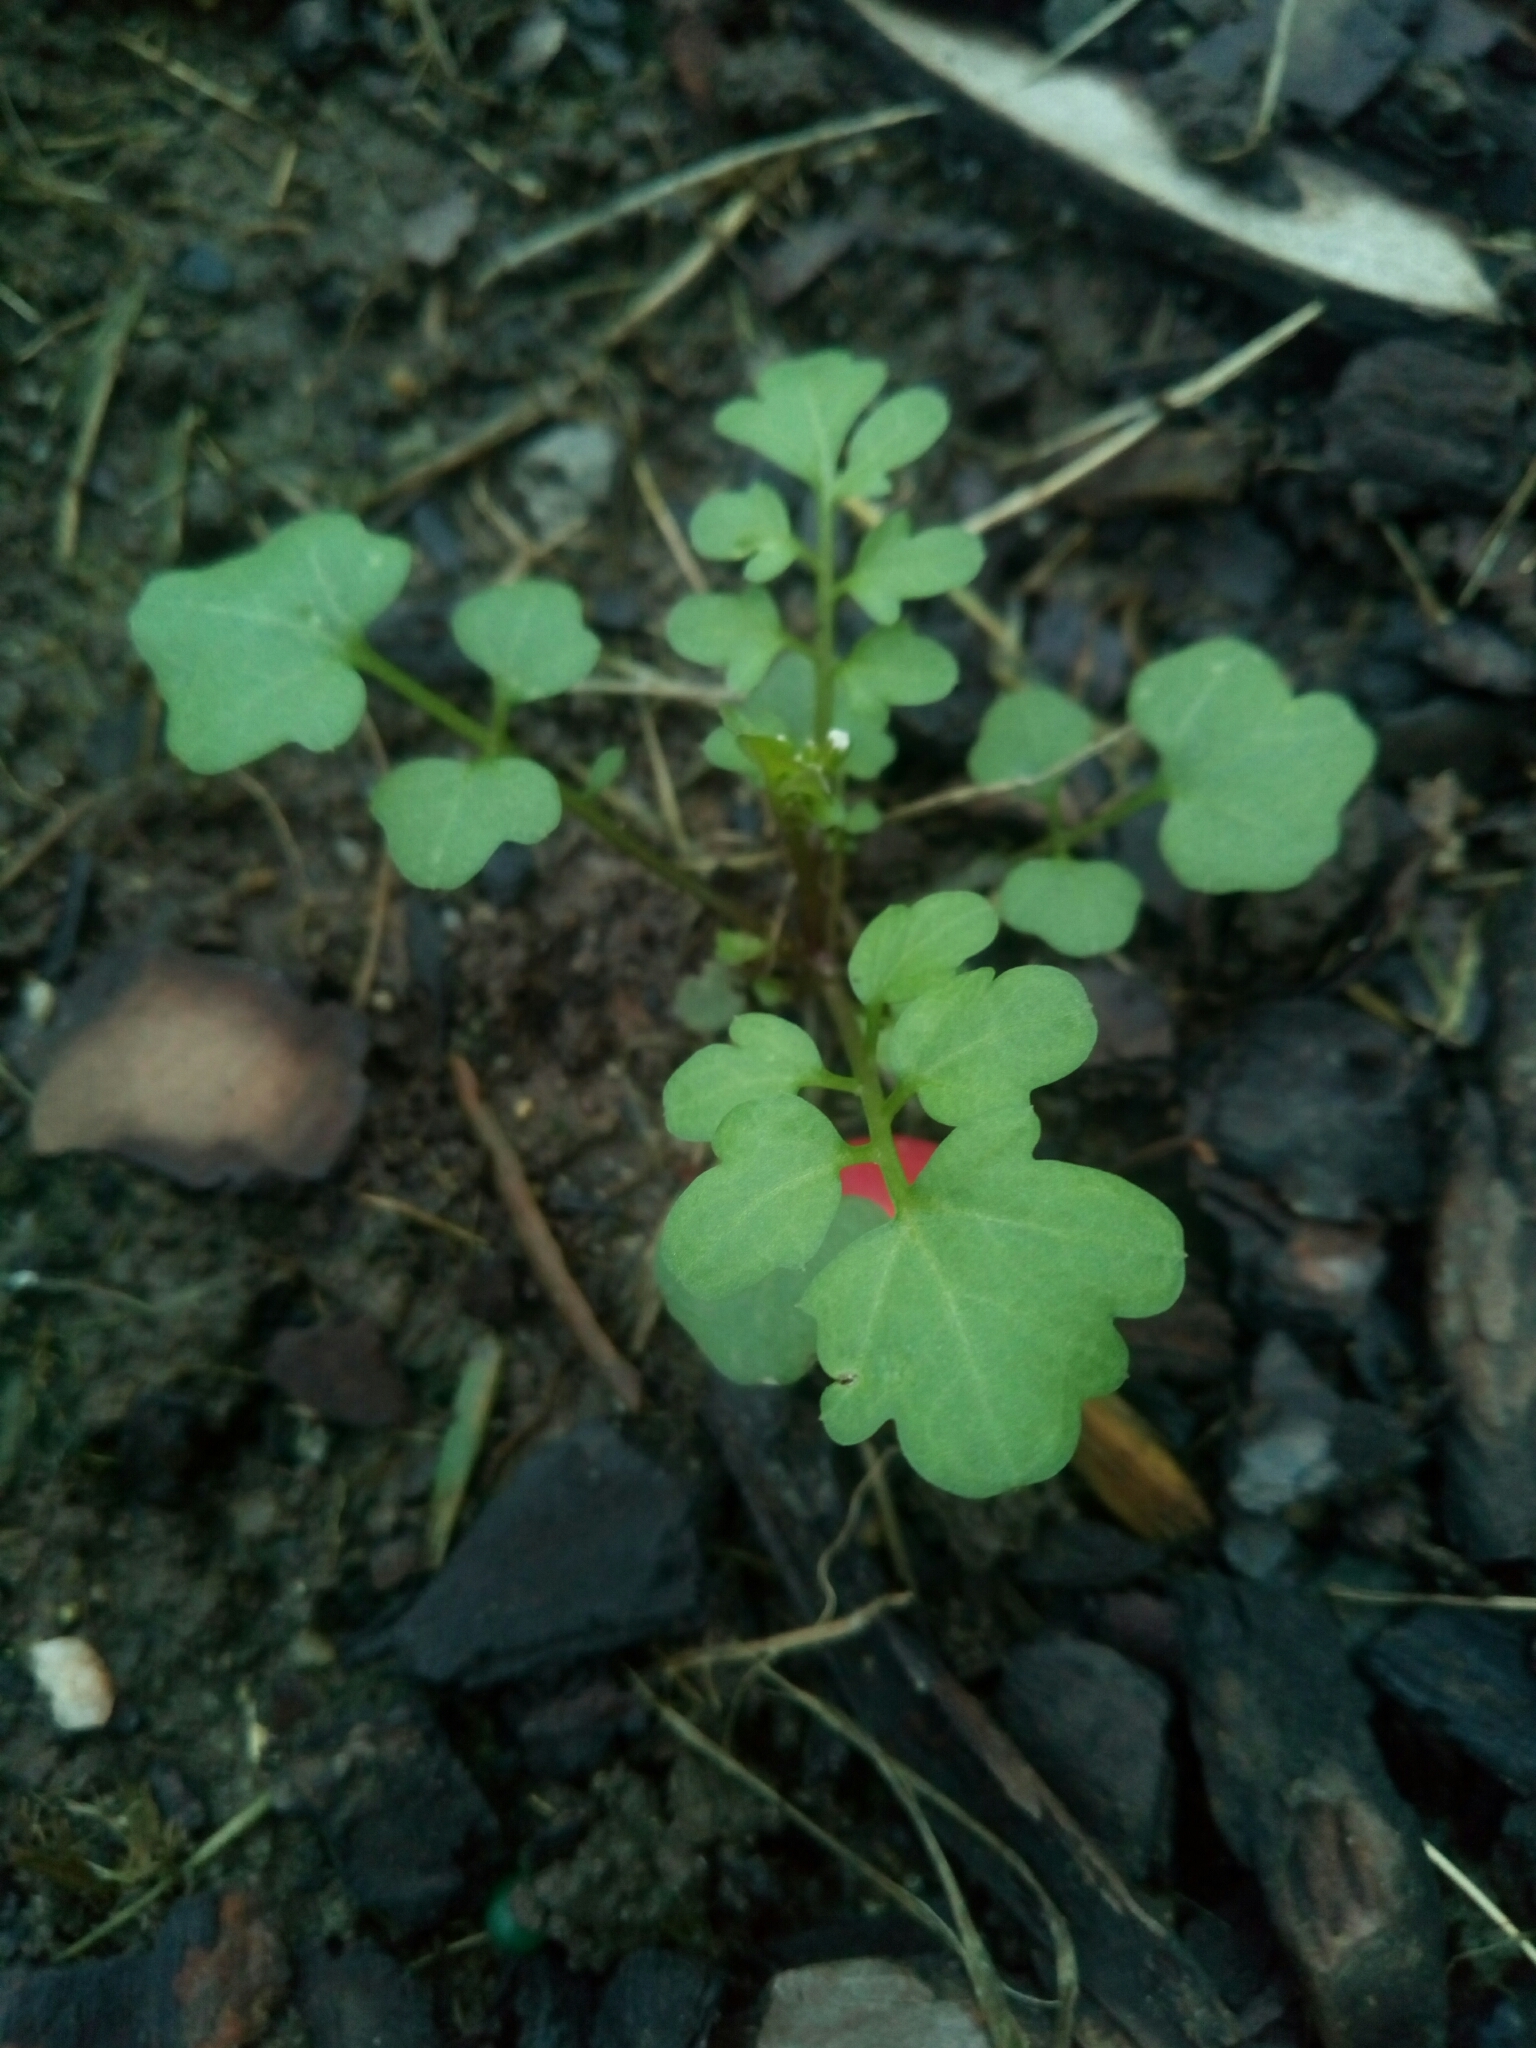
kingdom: Plantae
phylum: Tracheophyta
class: Magnoliopsida
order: Brassicales
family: Brassicaceae
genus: Cardamine
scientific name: Cardamine occulta
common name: Asian wavy bittercress
